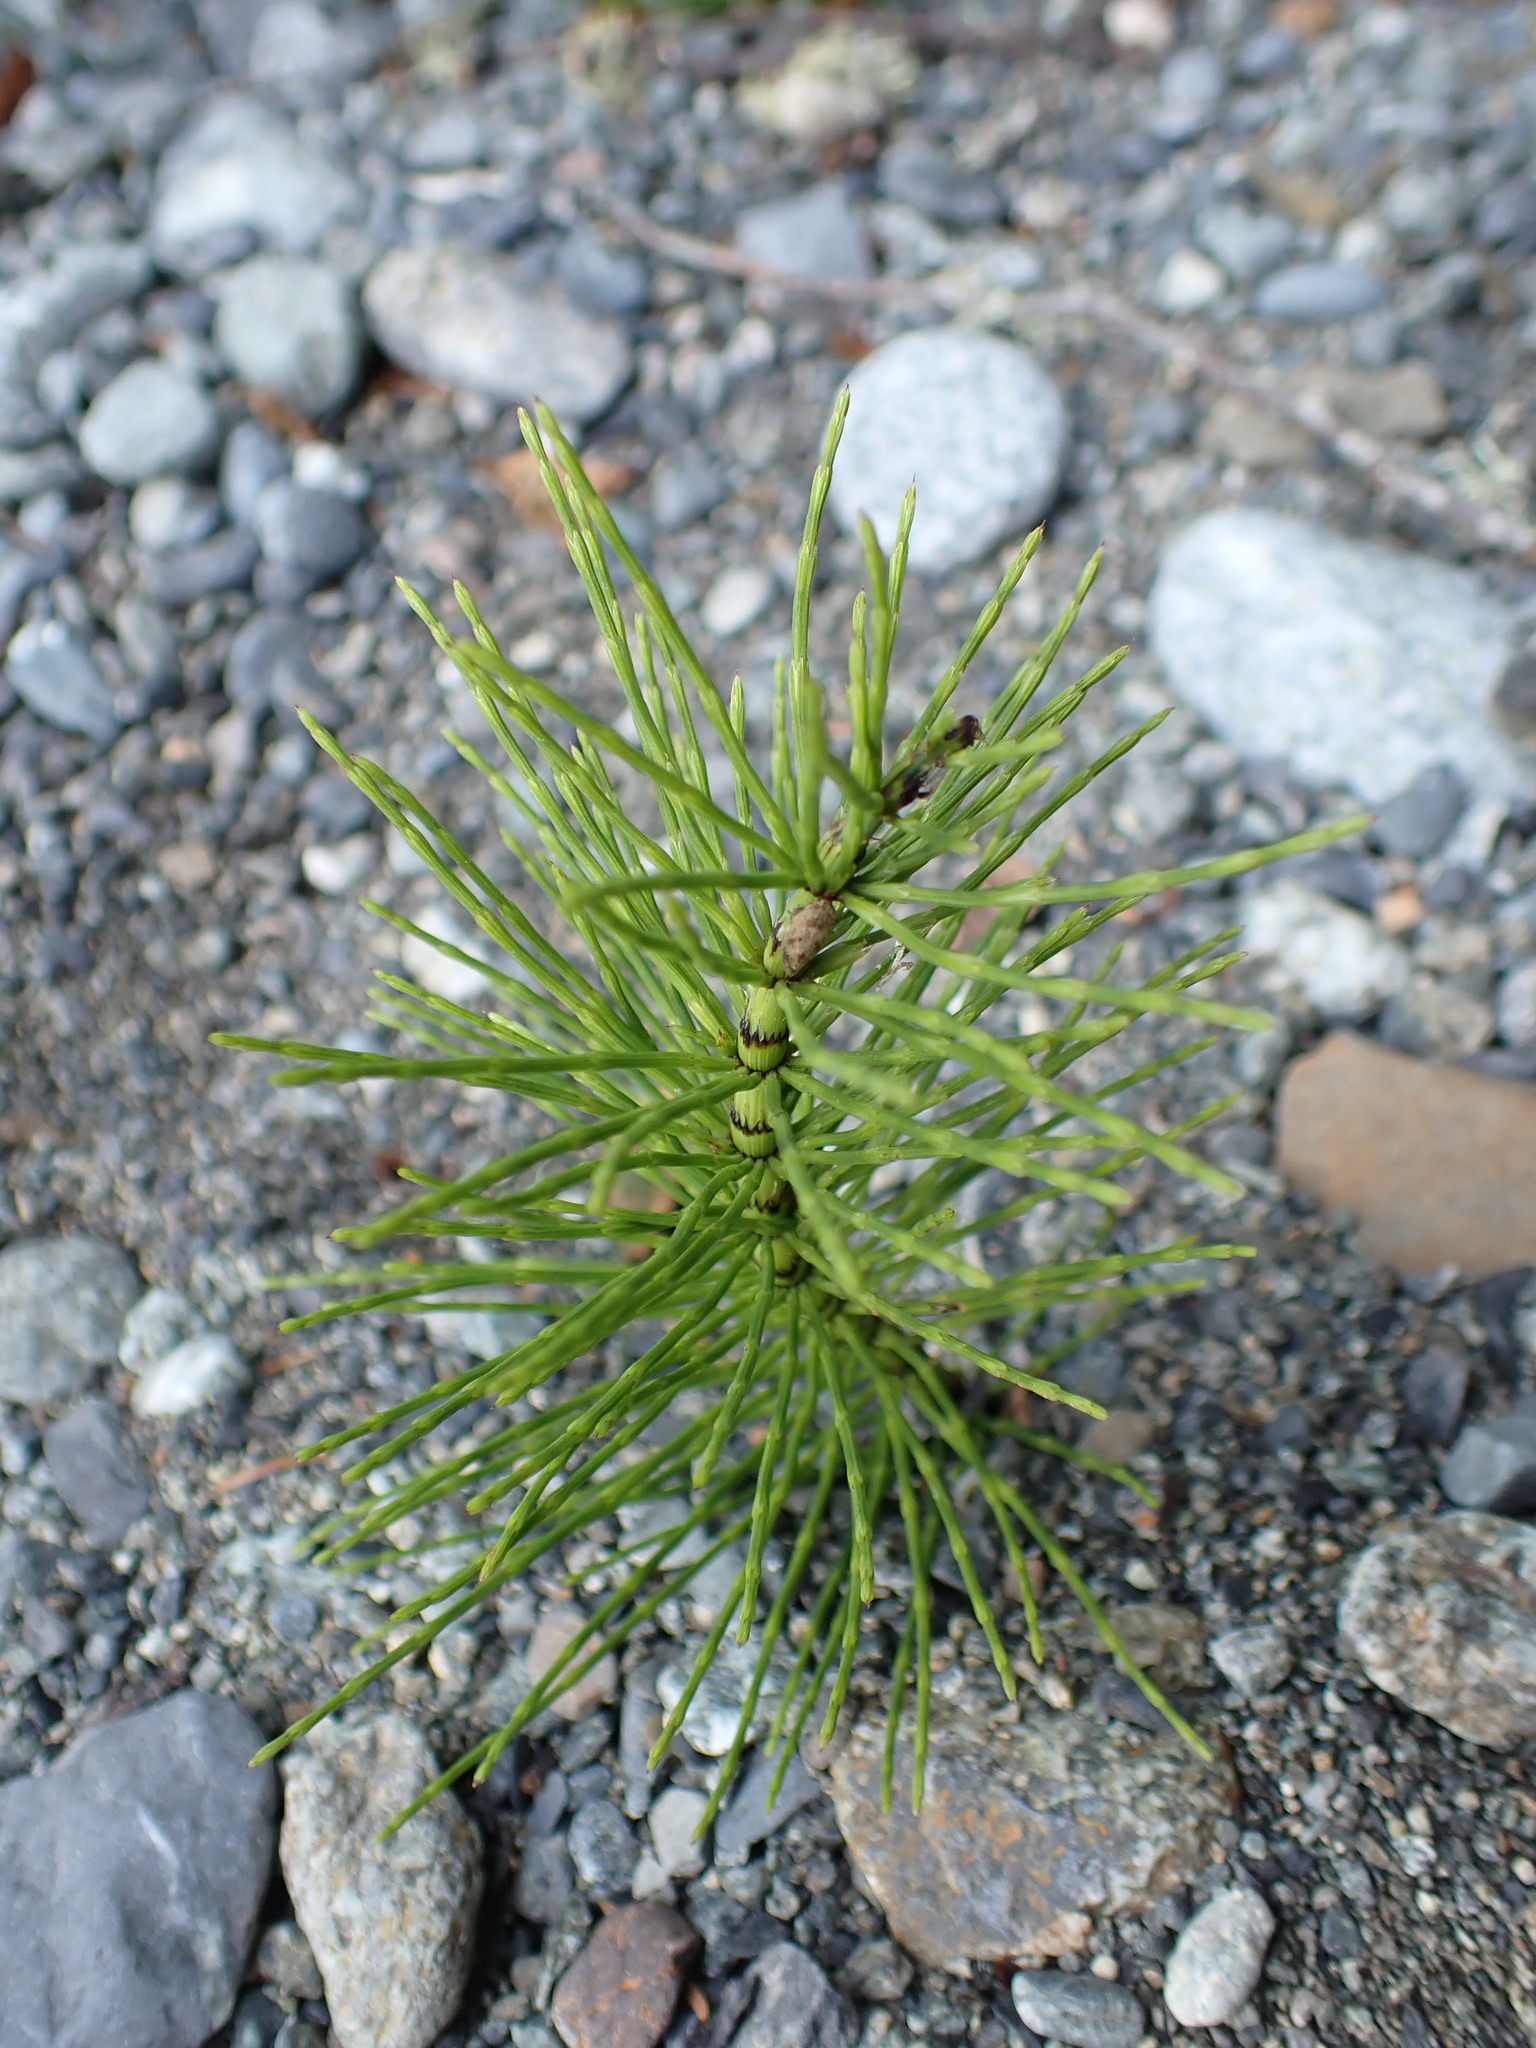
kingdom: Plantae
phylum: Tracheophyta
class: Polypodiopsida
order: Equisetales
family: Equisetaceae
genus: Equisetum
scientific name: Equisetum braunii
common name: Braun's horsetail
